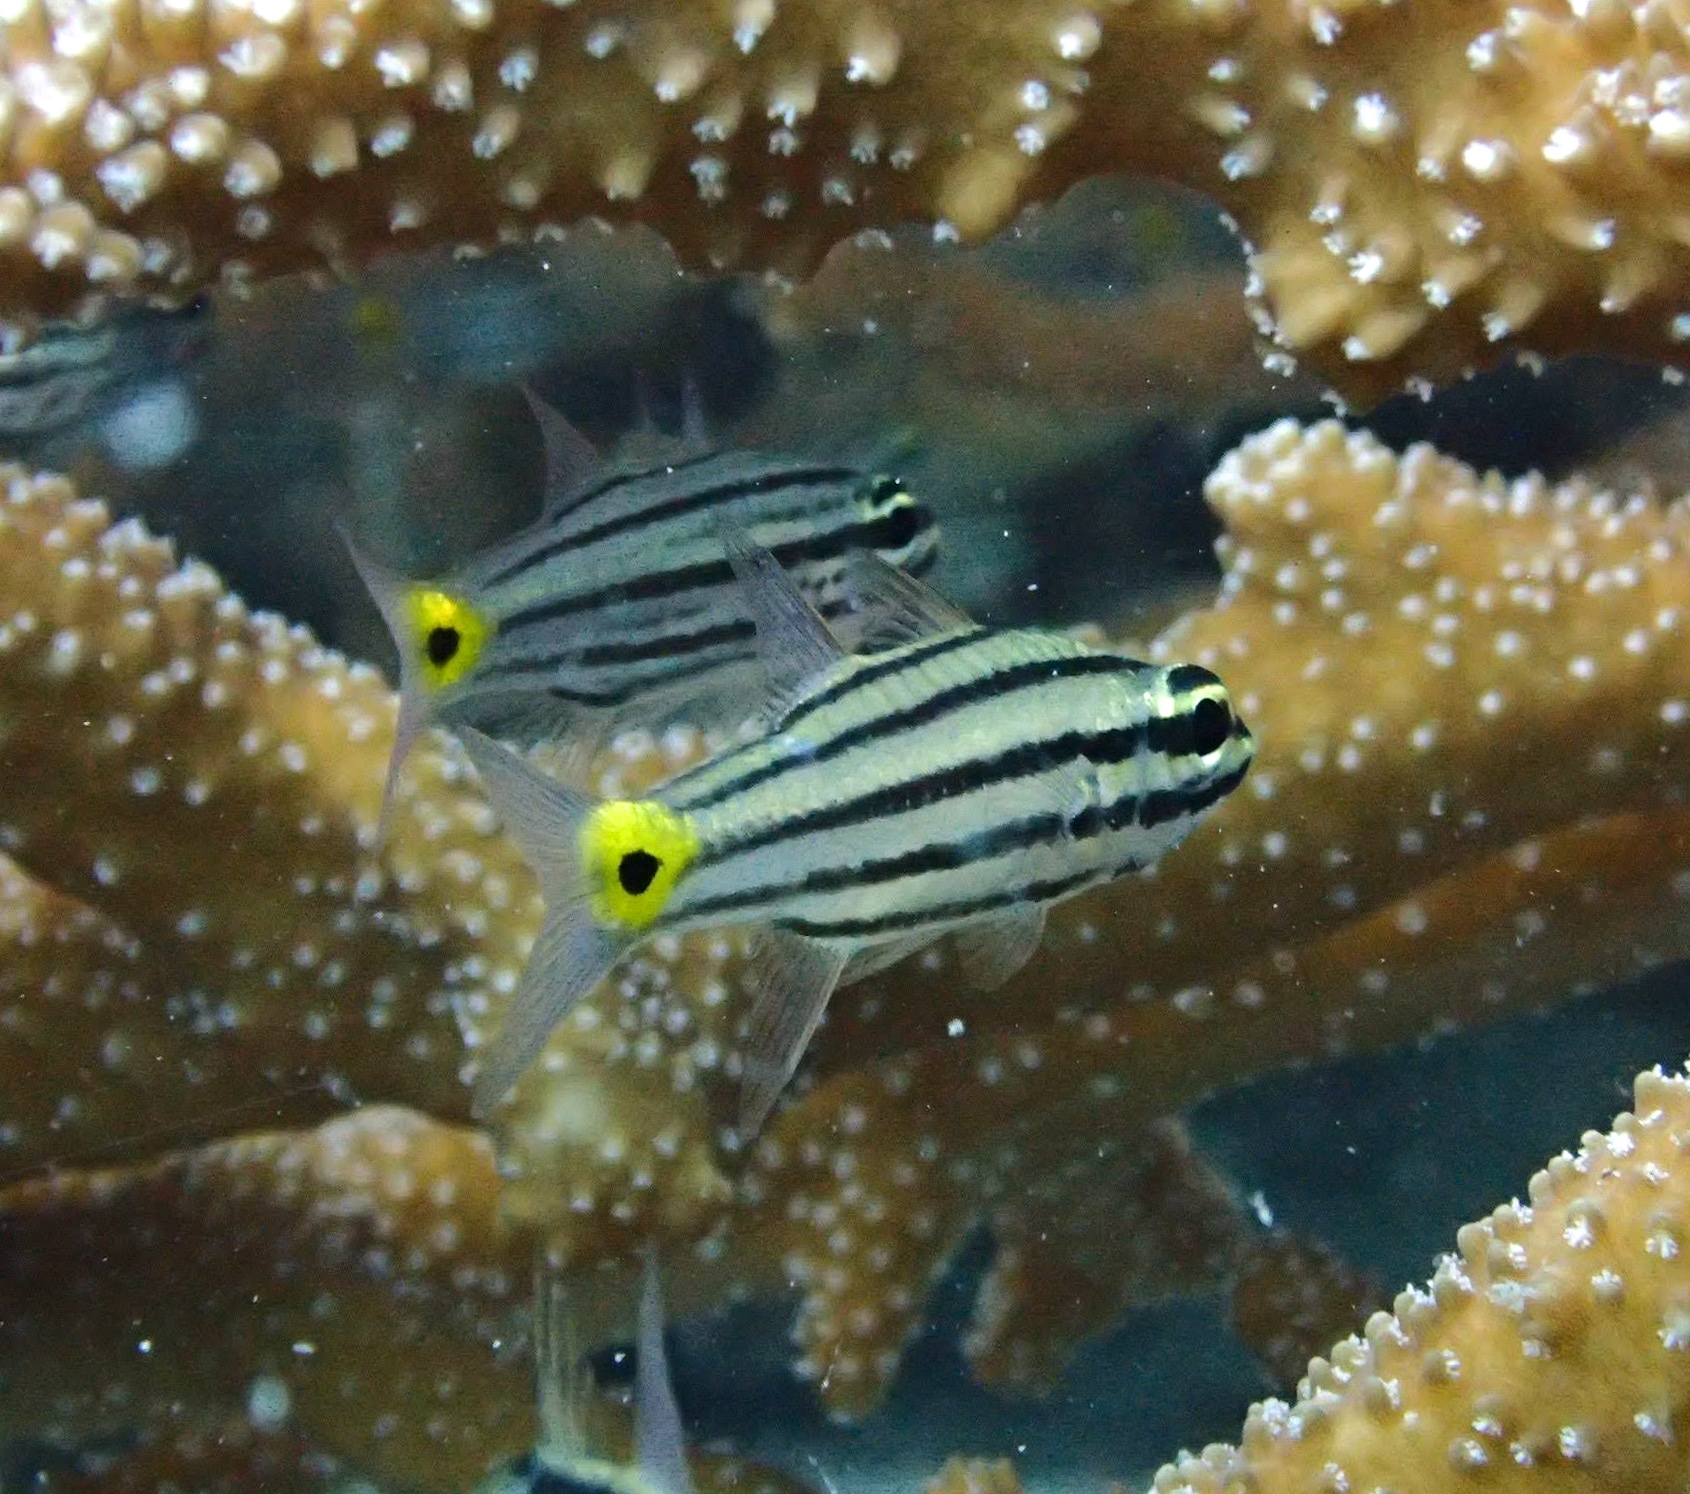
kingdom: Animalia
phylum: Chordata
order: Perciformes
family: Apogonidae
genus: Cheilodipterus
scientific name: Cheilodipterus quinquelineatus
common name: Five-lined cardinalfish
